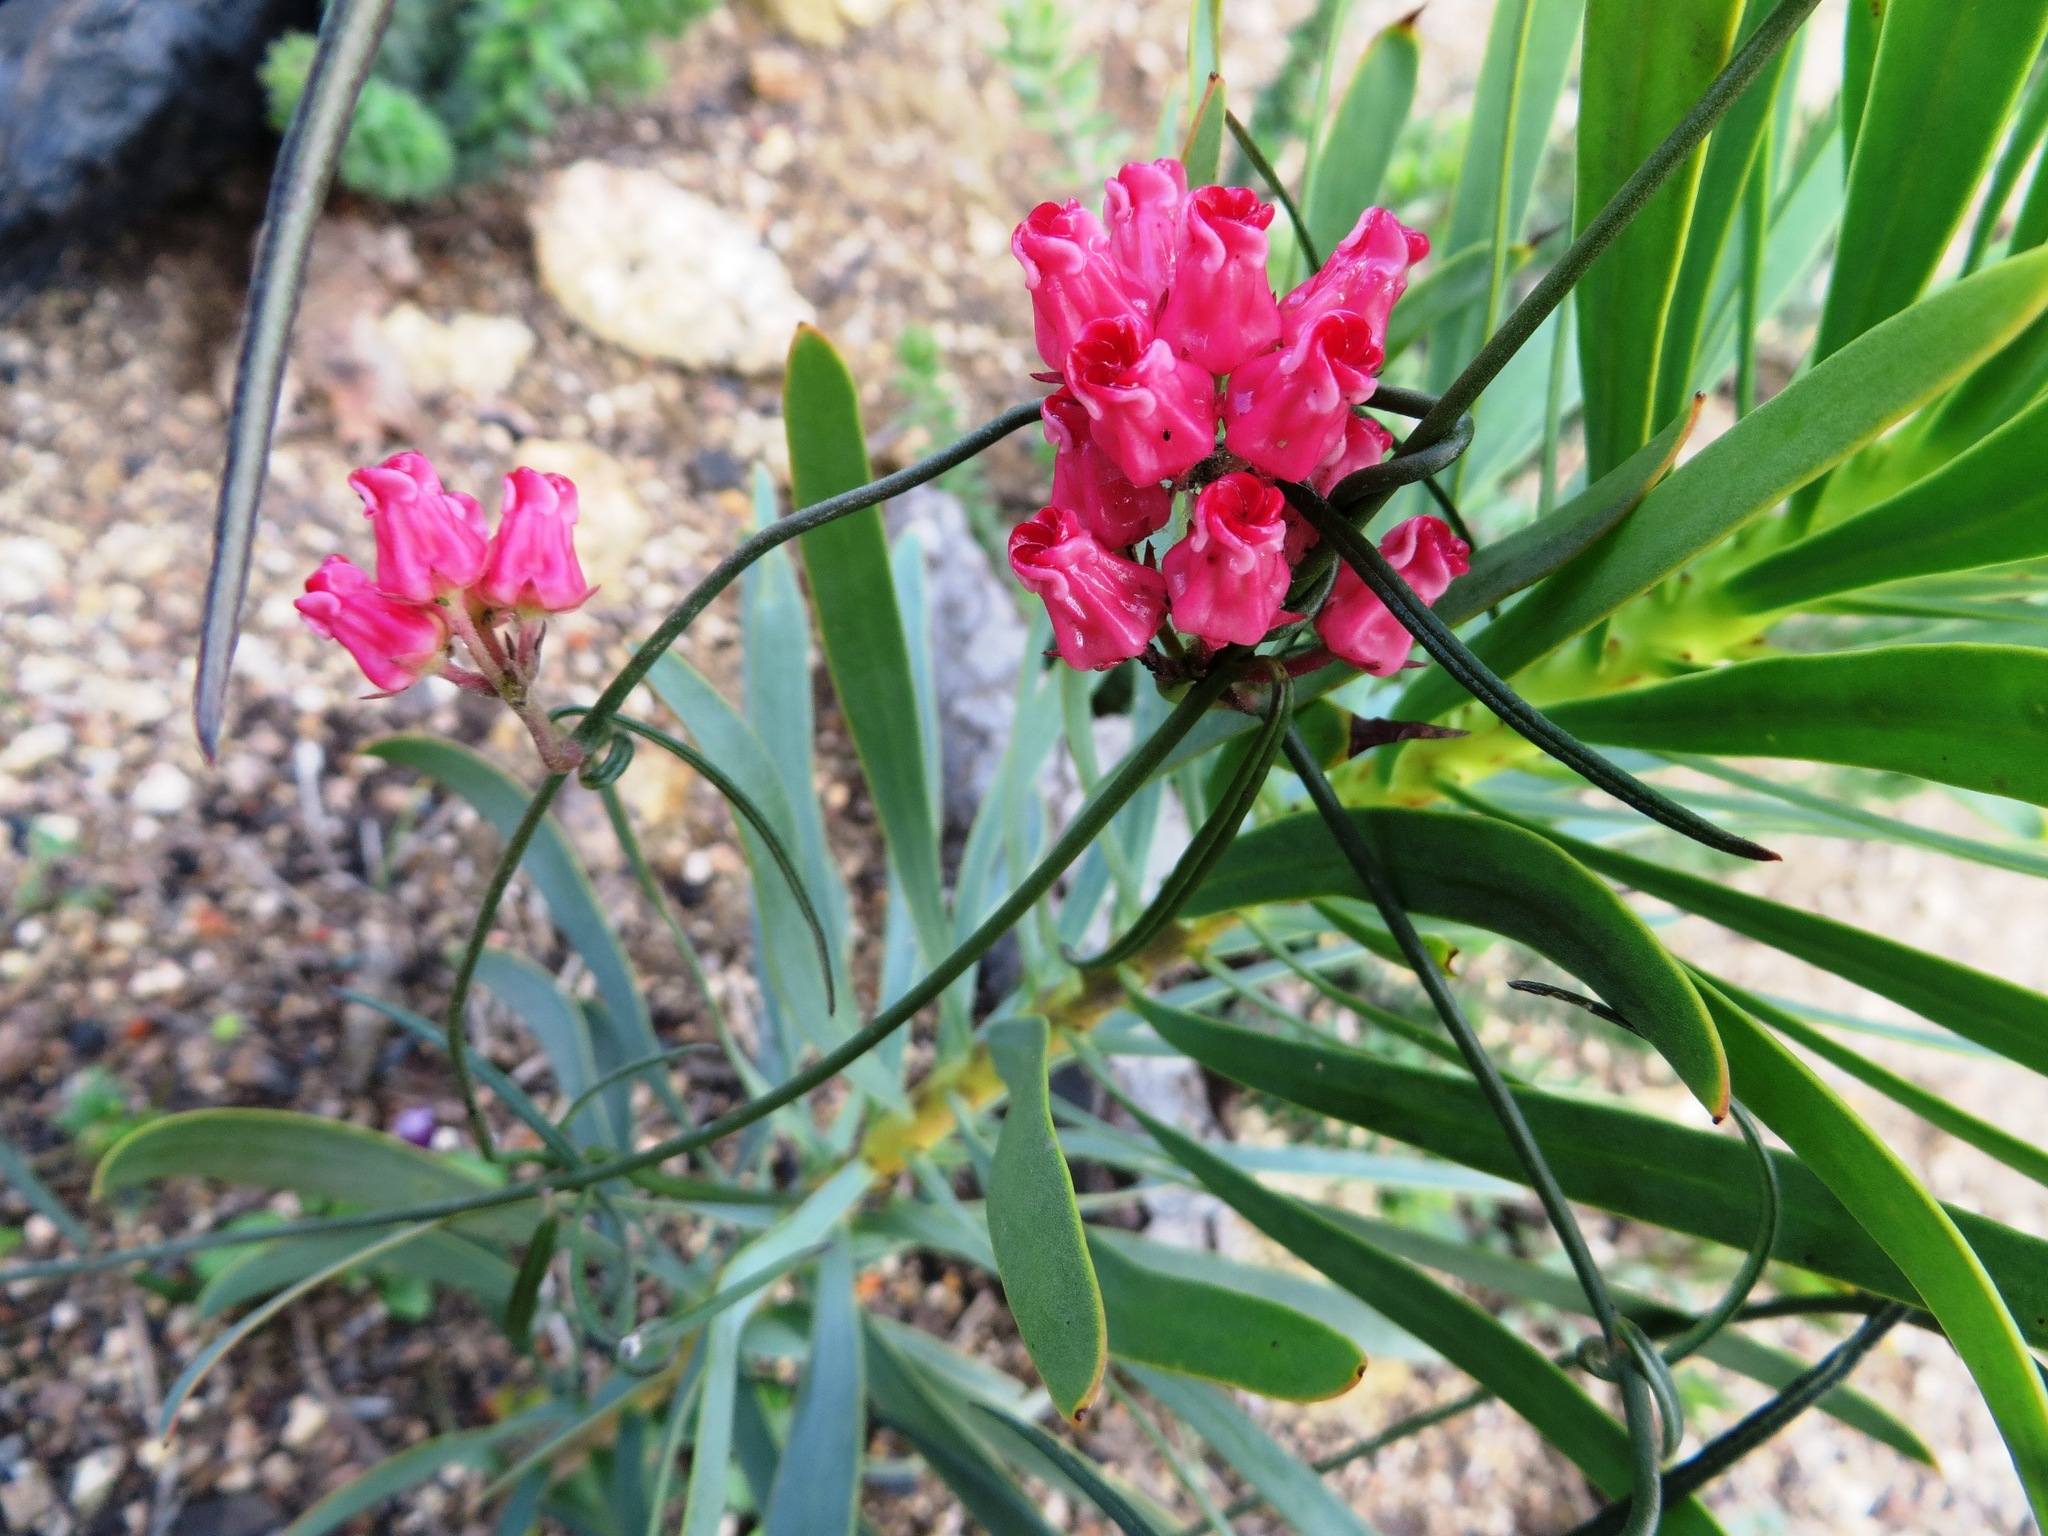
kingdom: Plantae
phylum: Tracheophyta
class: Magnoliopsida
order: Gentianales
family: Apocynaceae
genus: Microloma
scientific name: Microloma tenuifolium
